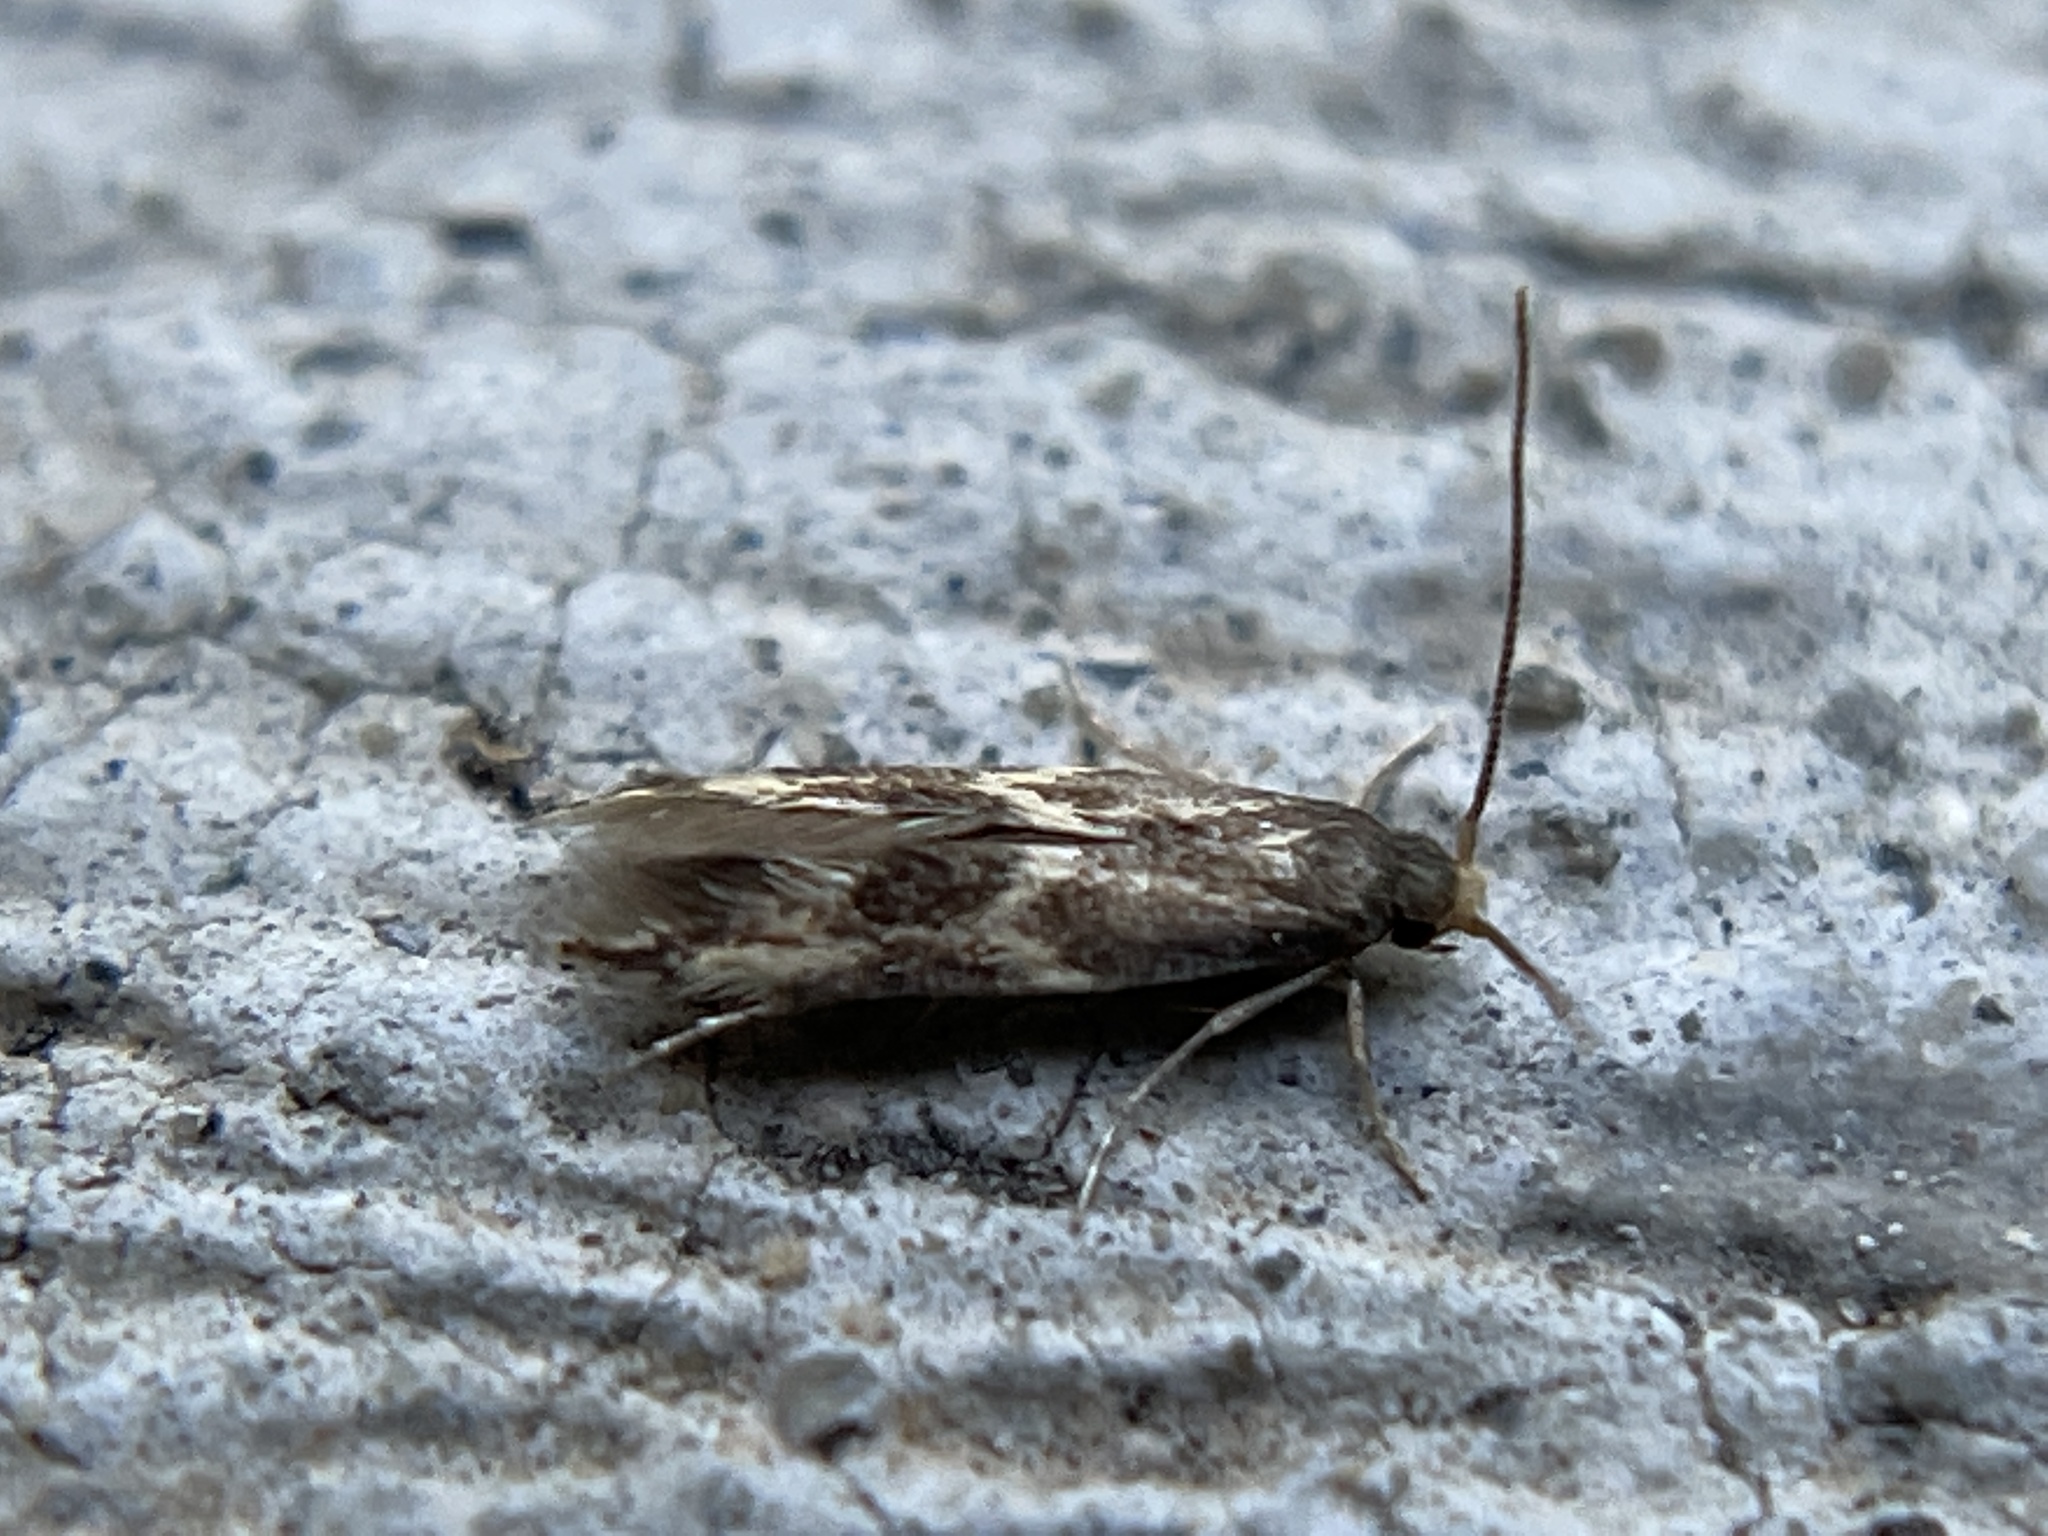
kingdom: Animalia
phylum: Arthropoda
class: Insecta
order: Lepidoptera
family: Tineidae
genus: Oinophila
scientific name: Oinophila v-flava
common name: Yellow v moth
